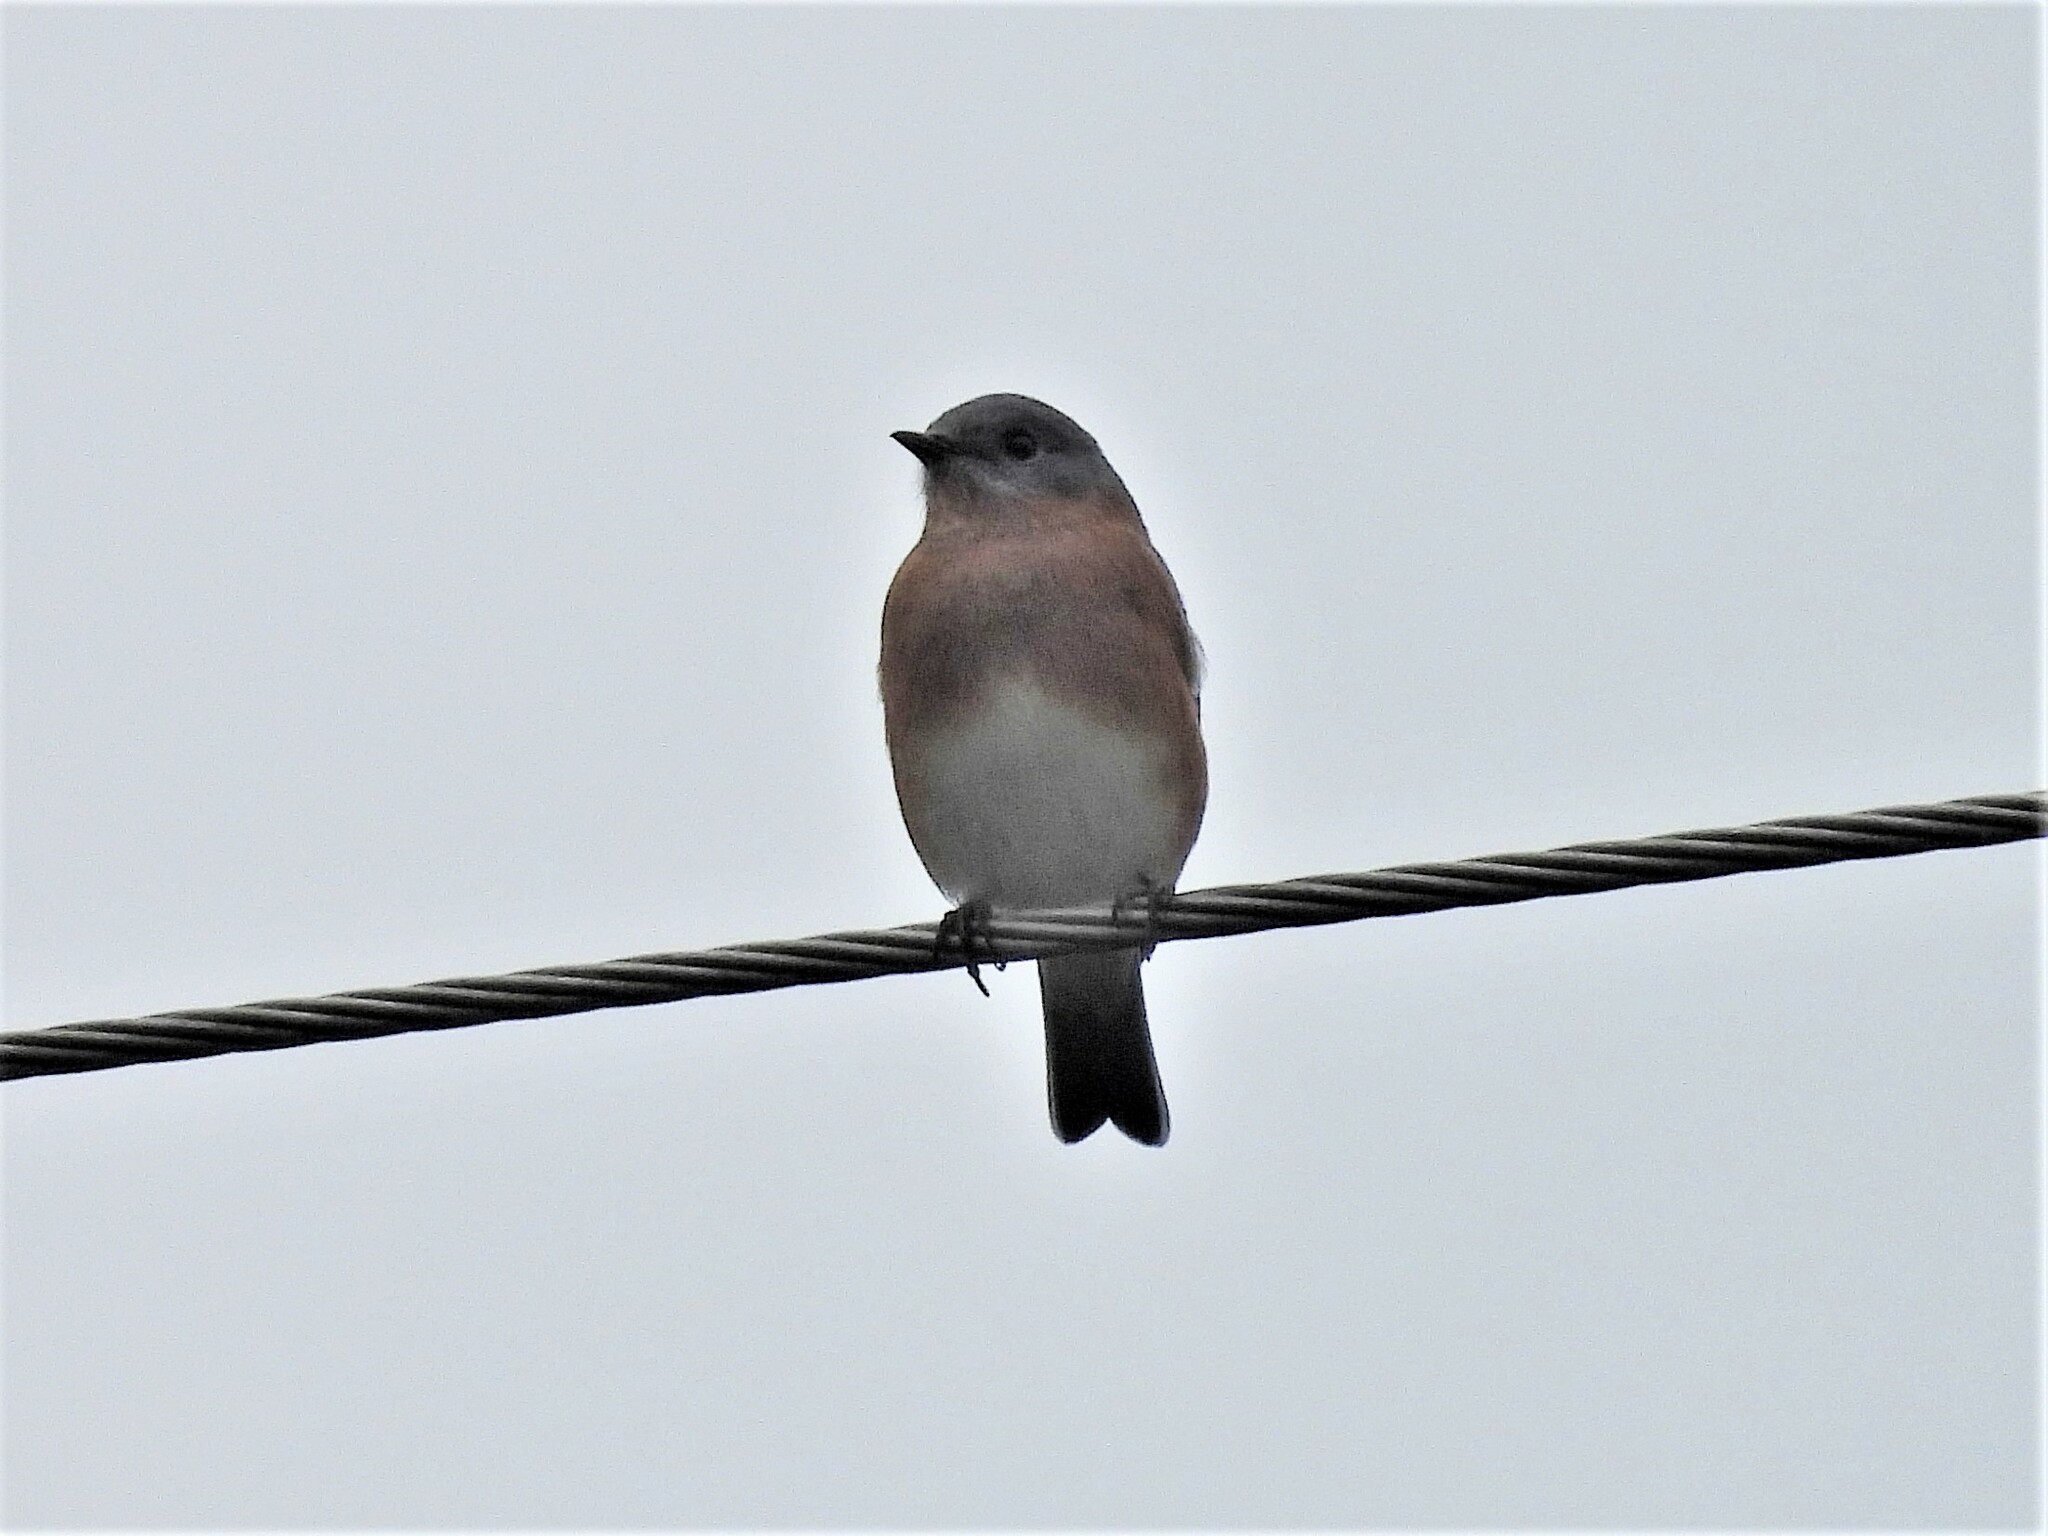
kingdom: Animalia
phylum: Chordata
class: Aves
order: Passeriformes
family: Turdidae
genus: Sialia
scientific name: Sialia sialis
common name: Eastern bluebird
